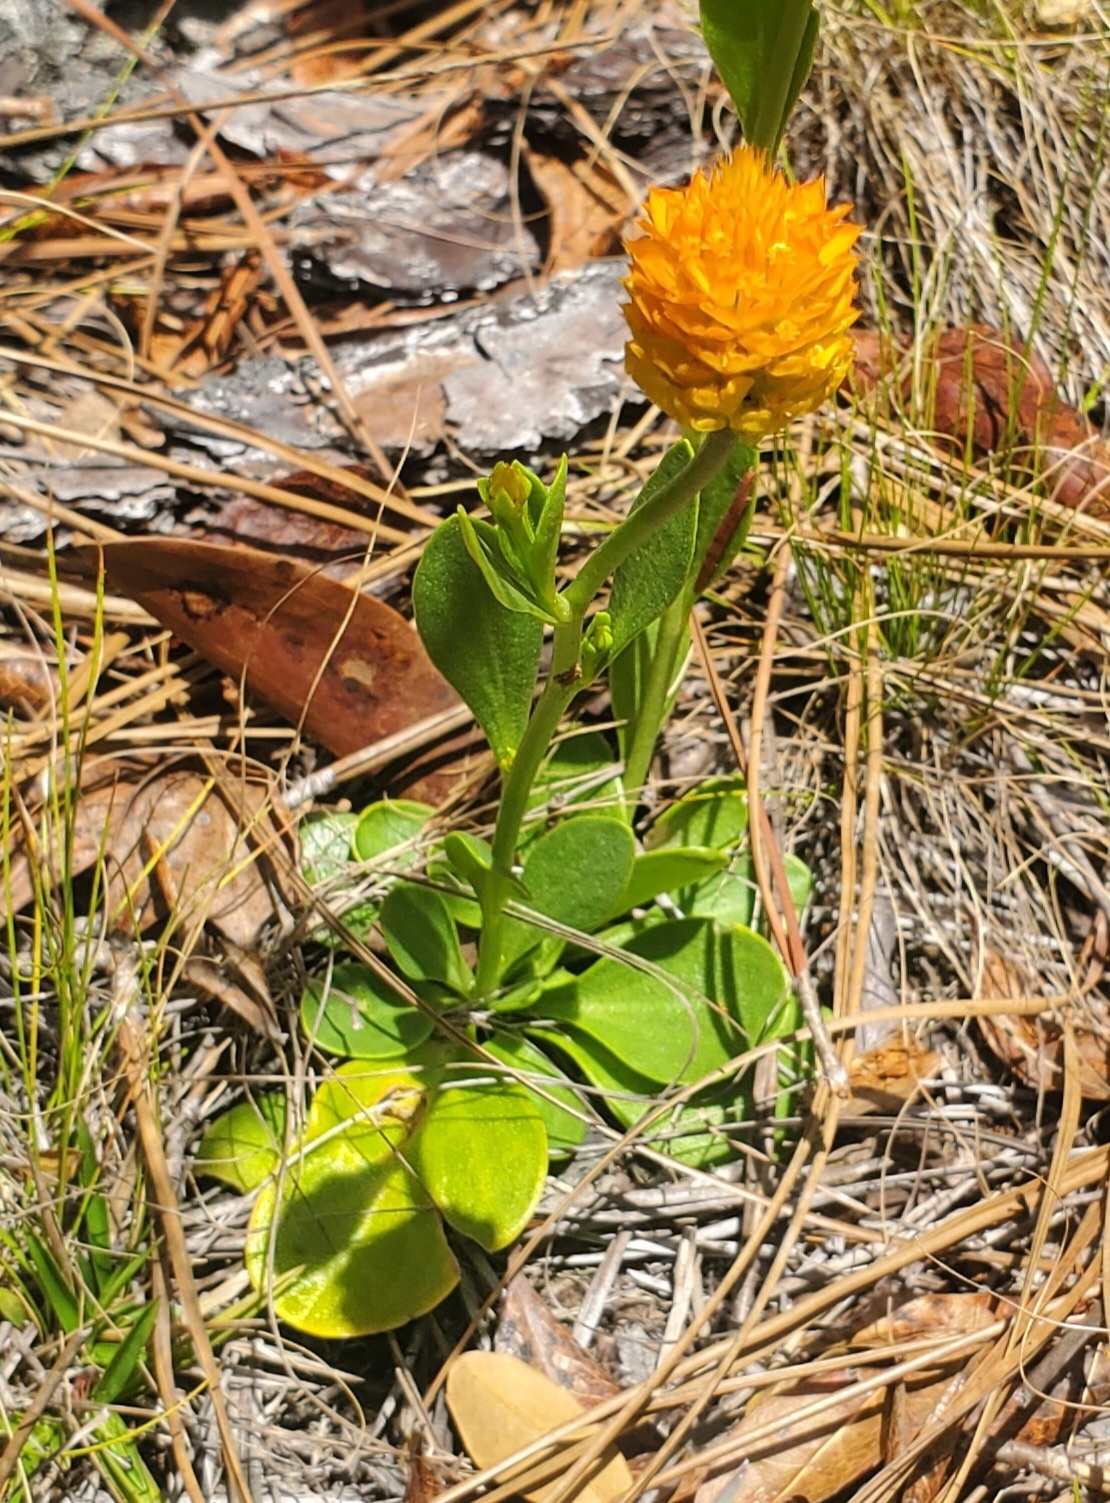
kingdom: Plantae
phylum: Tracheophyta
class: Magnoliopsida
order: Fabales
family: Polygalaceae
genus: Polygala
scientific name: Polygala lutea
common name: Orange milkwort
